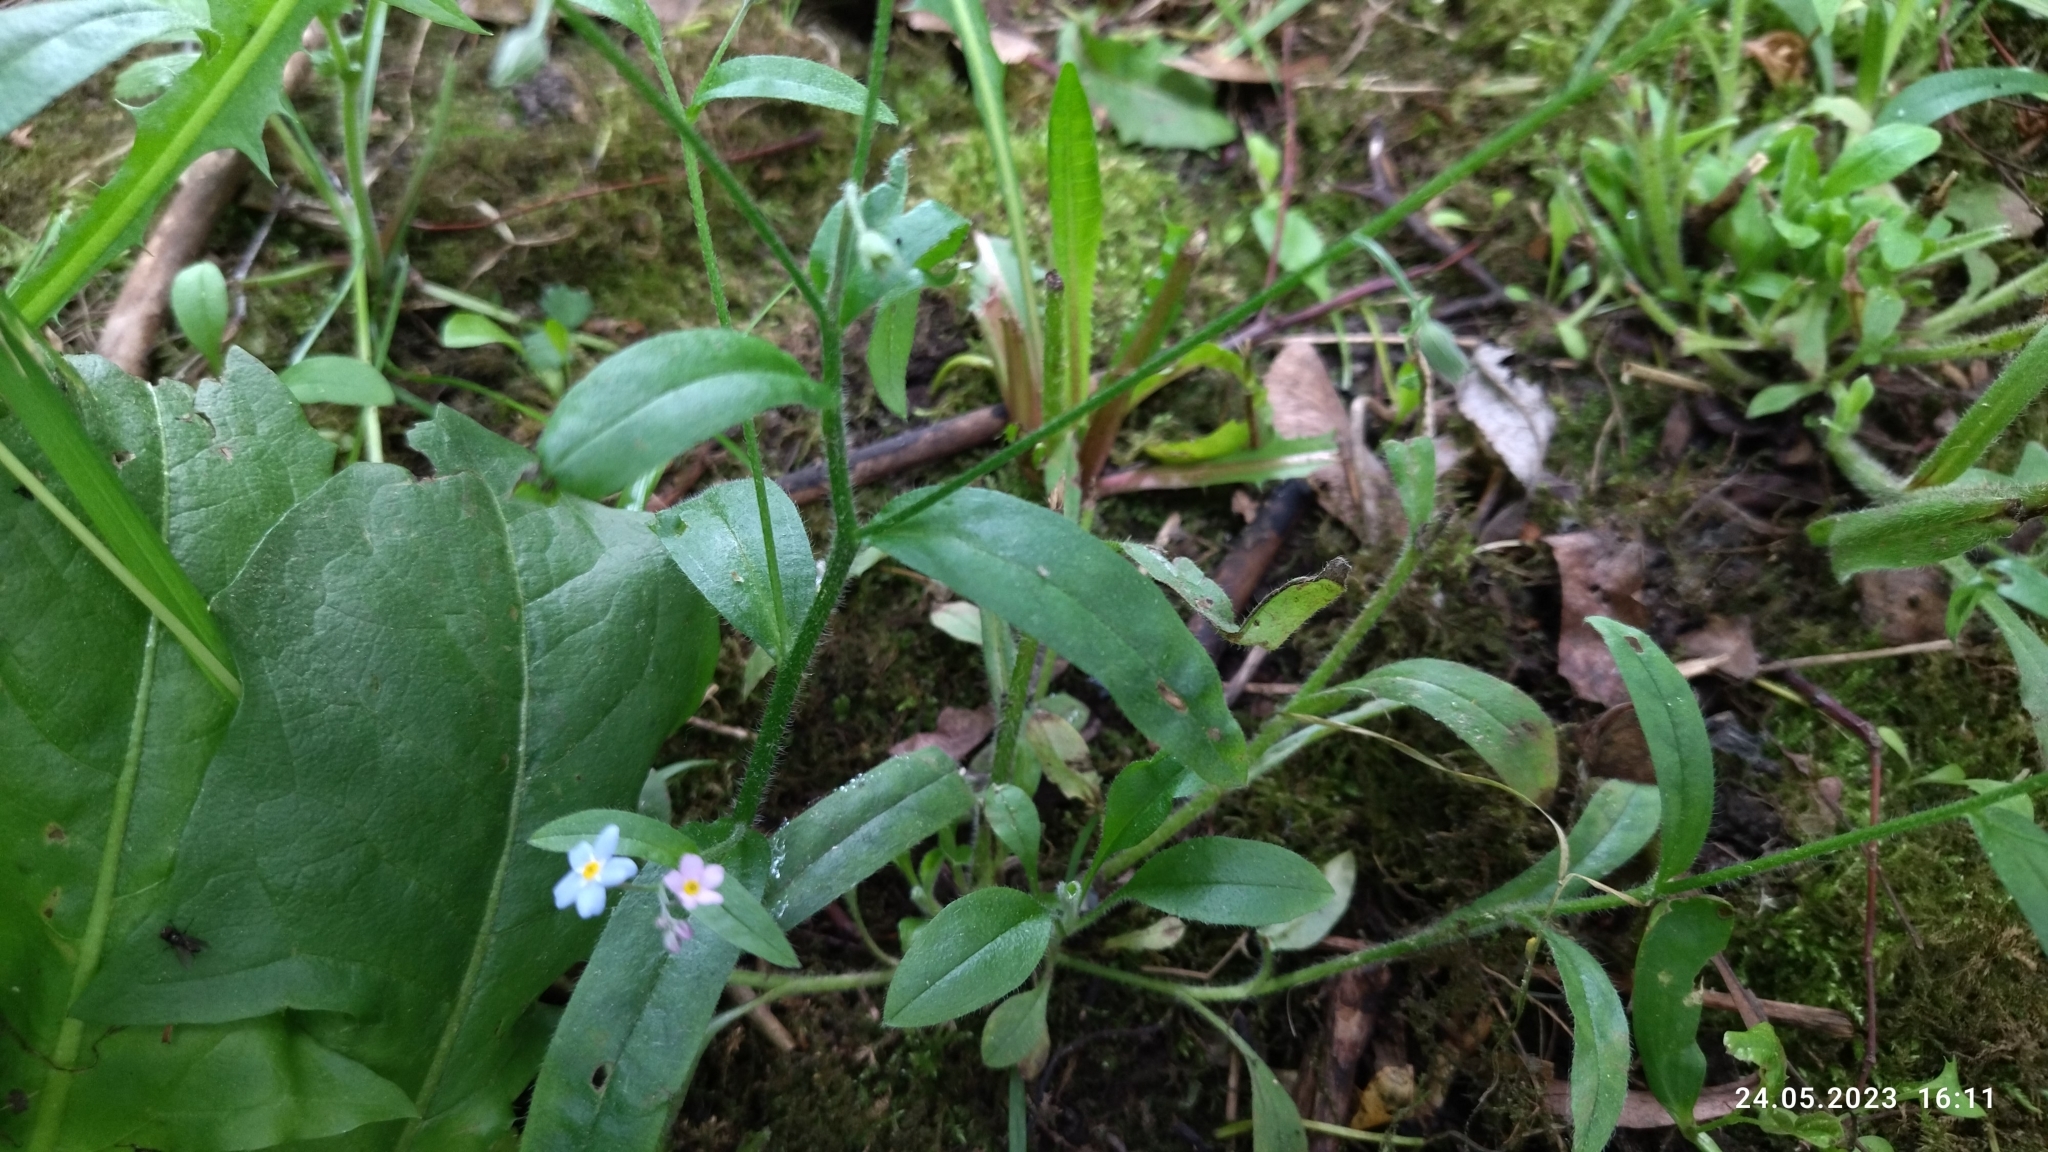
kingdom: Plantae
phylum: Tracheophyta
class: Magnoliopsida
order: Boraginales
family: Boraginaceae
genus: Myosotis
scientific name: Myosotis sylvatica
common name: Wood forget-me-not
